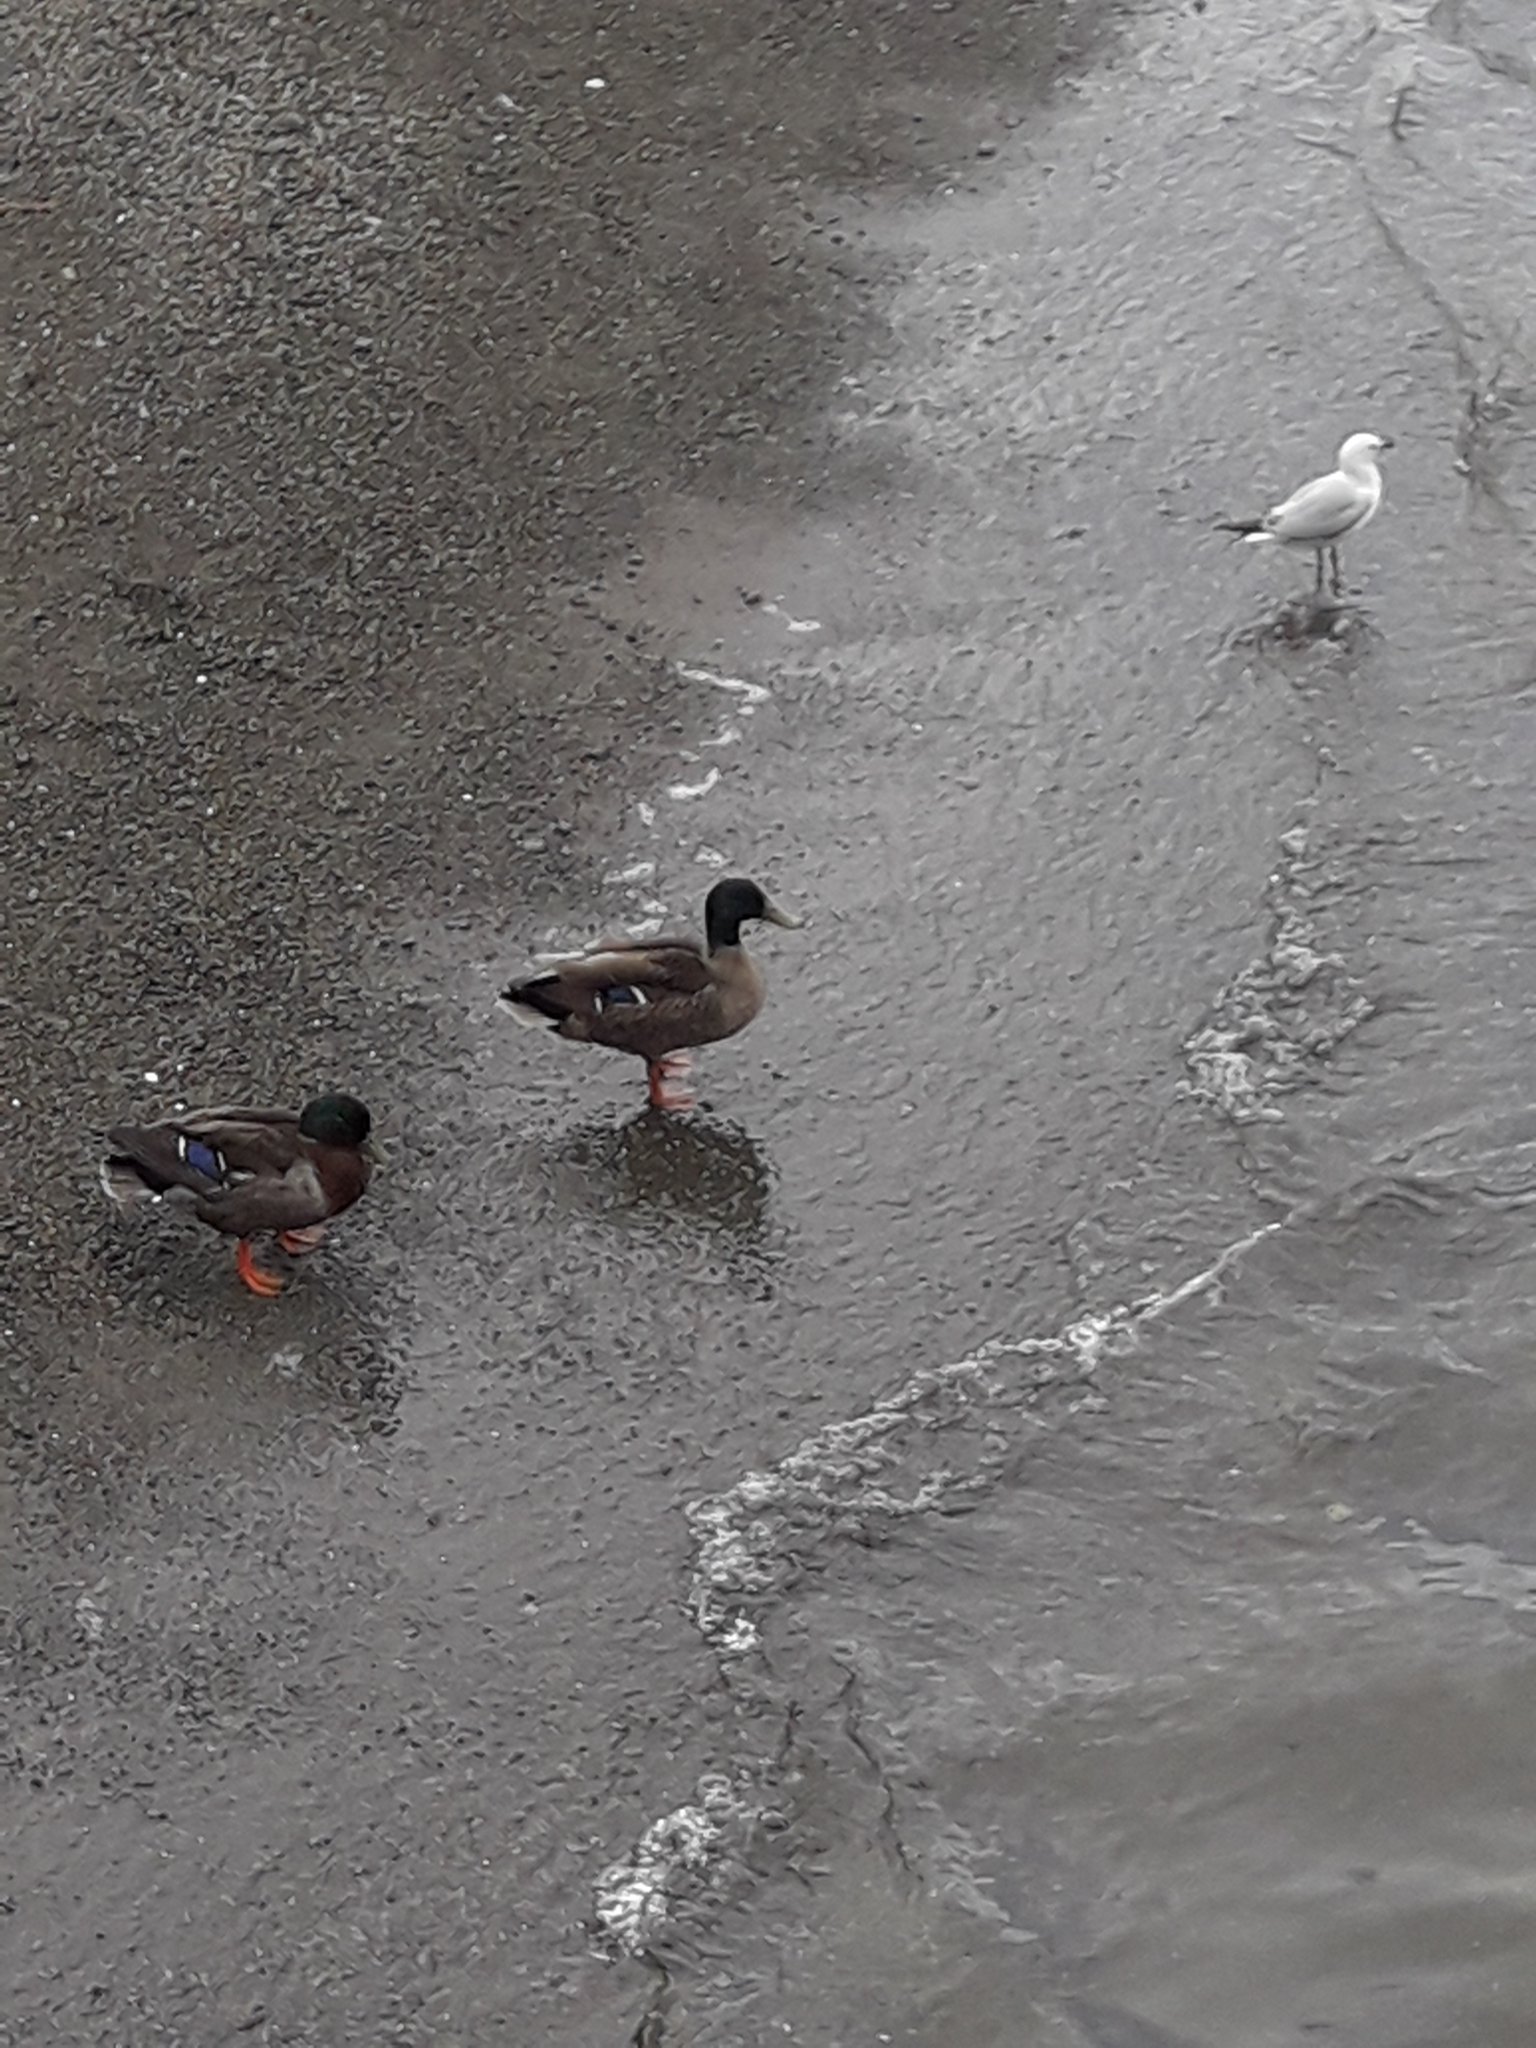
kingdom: Animalia
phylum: Chordata
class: Aves
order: Anseriformes
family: Anatidae
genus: Anas
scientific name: Anas platyrhynchos
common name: Mallard
